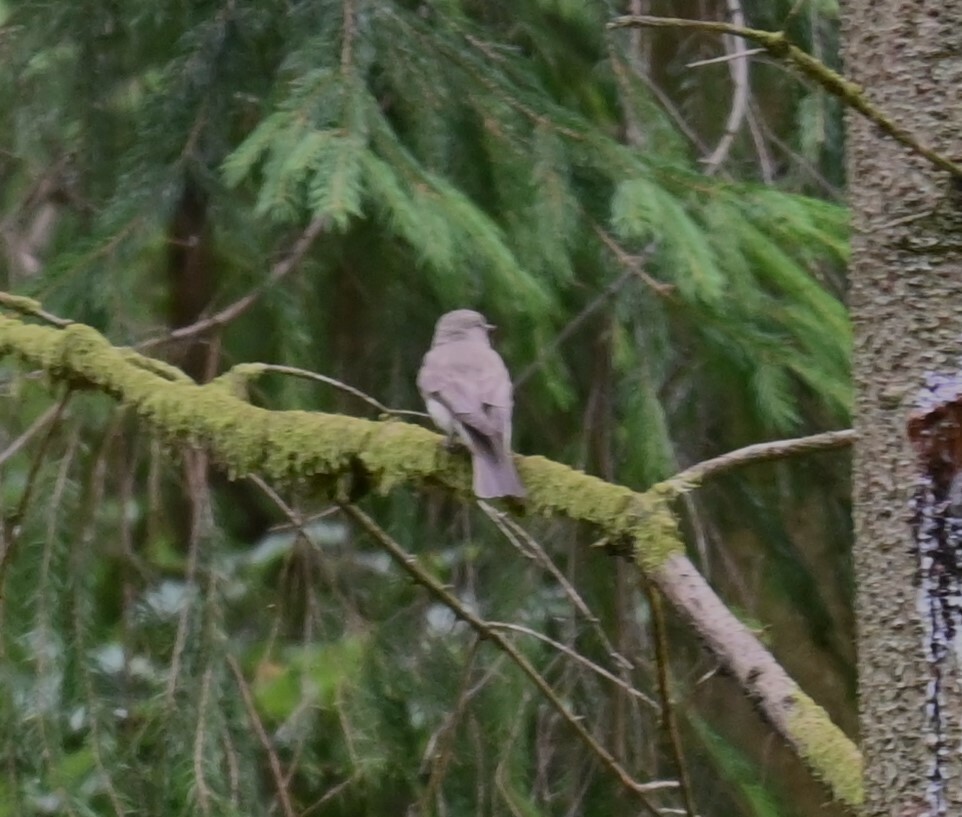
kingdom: Animalia
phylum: Chordata
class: Aves
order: Passeriformes
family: Muscicapidae
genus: Muscicapa
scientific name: Muscicapa striata
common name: Spotted flycatcher
